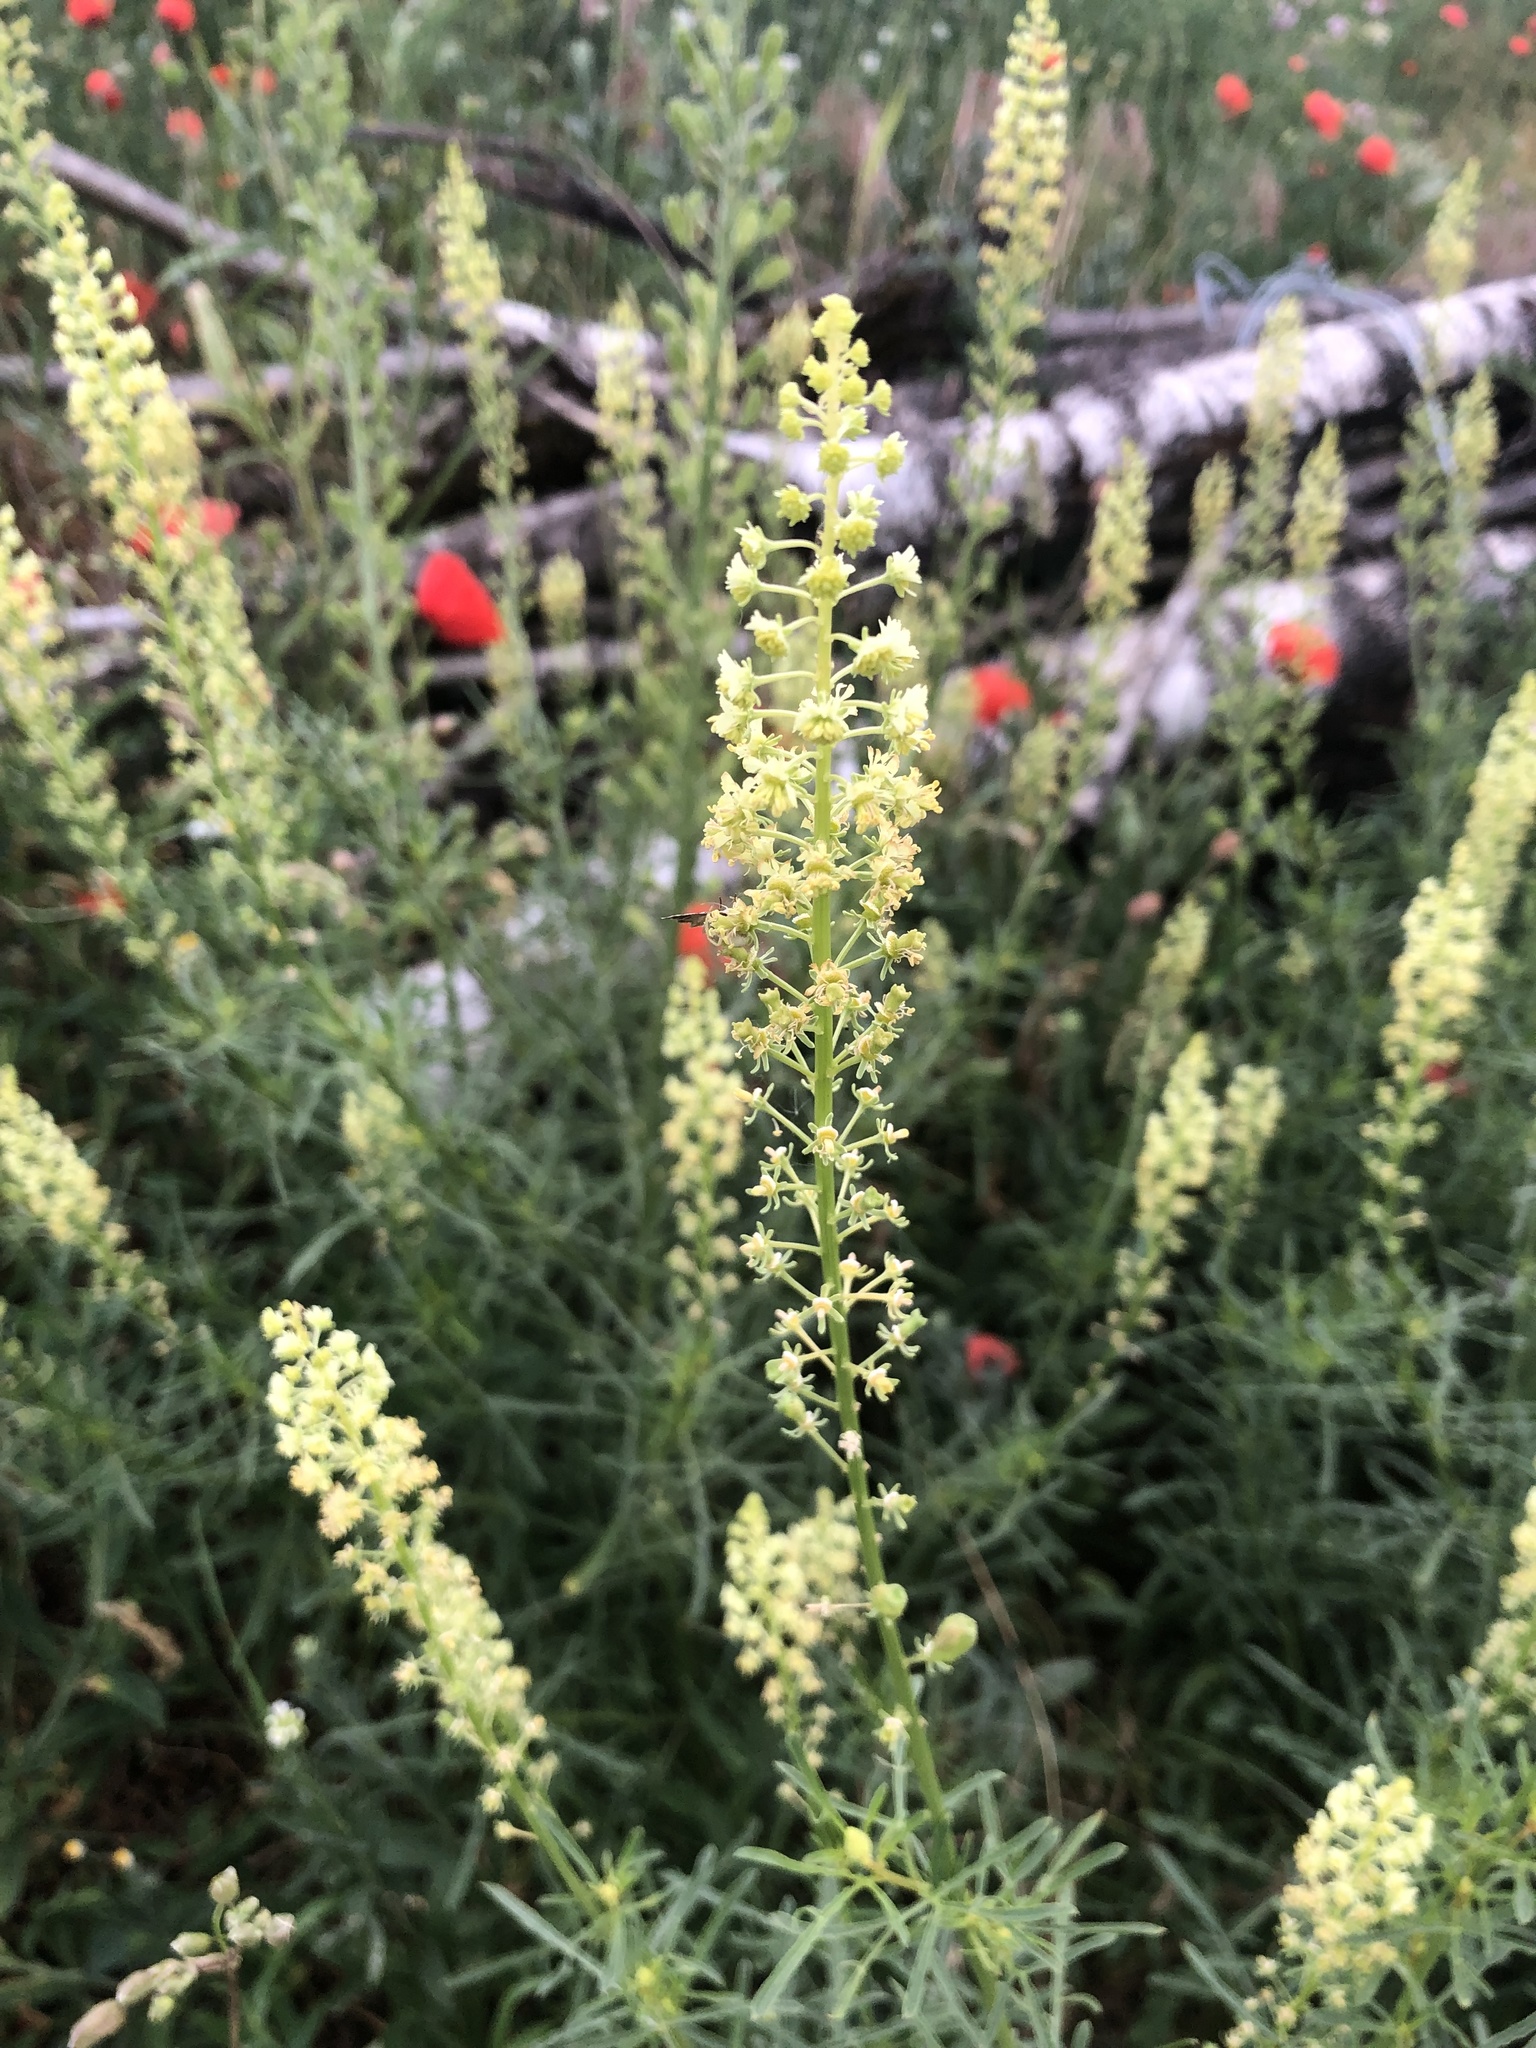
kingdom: Plantae
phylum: Tracheophyta
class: Magnoliopsida
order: Brassicales
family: Resedaceae
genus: Reseda
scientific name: Reseda lutea
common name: Wild mignonette
